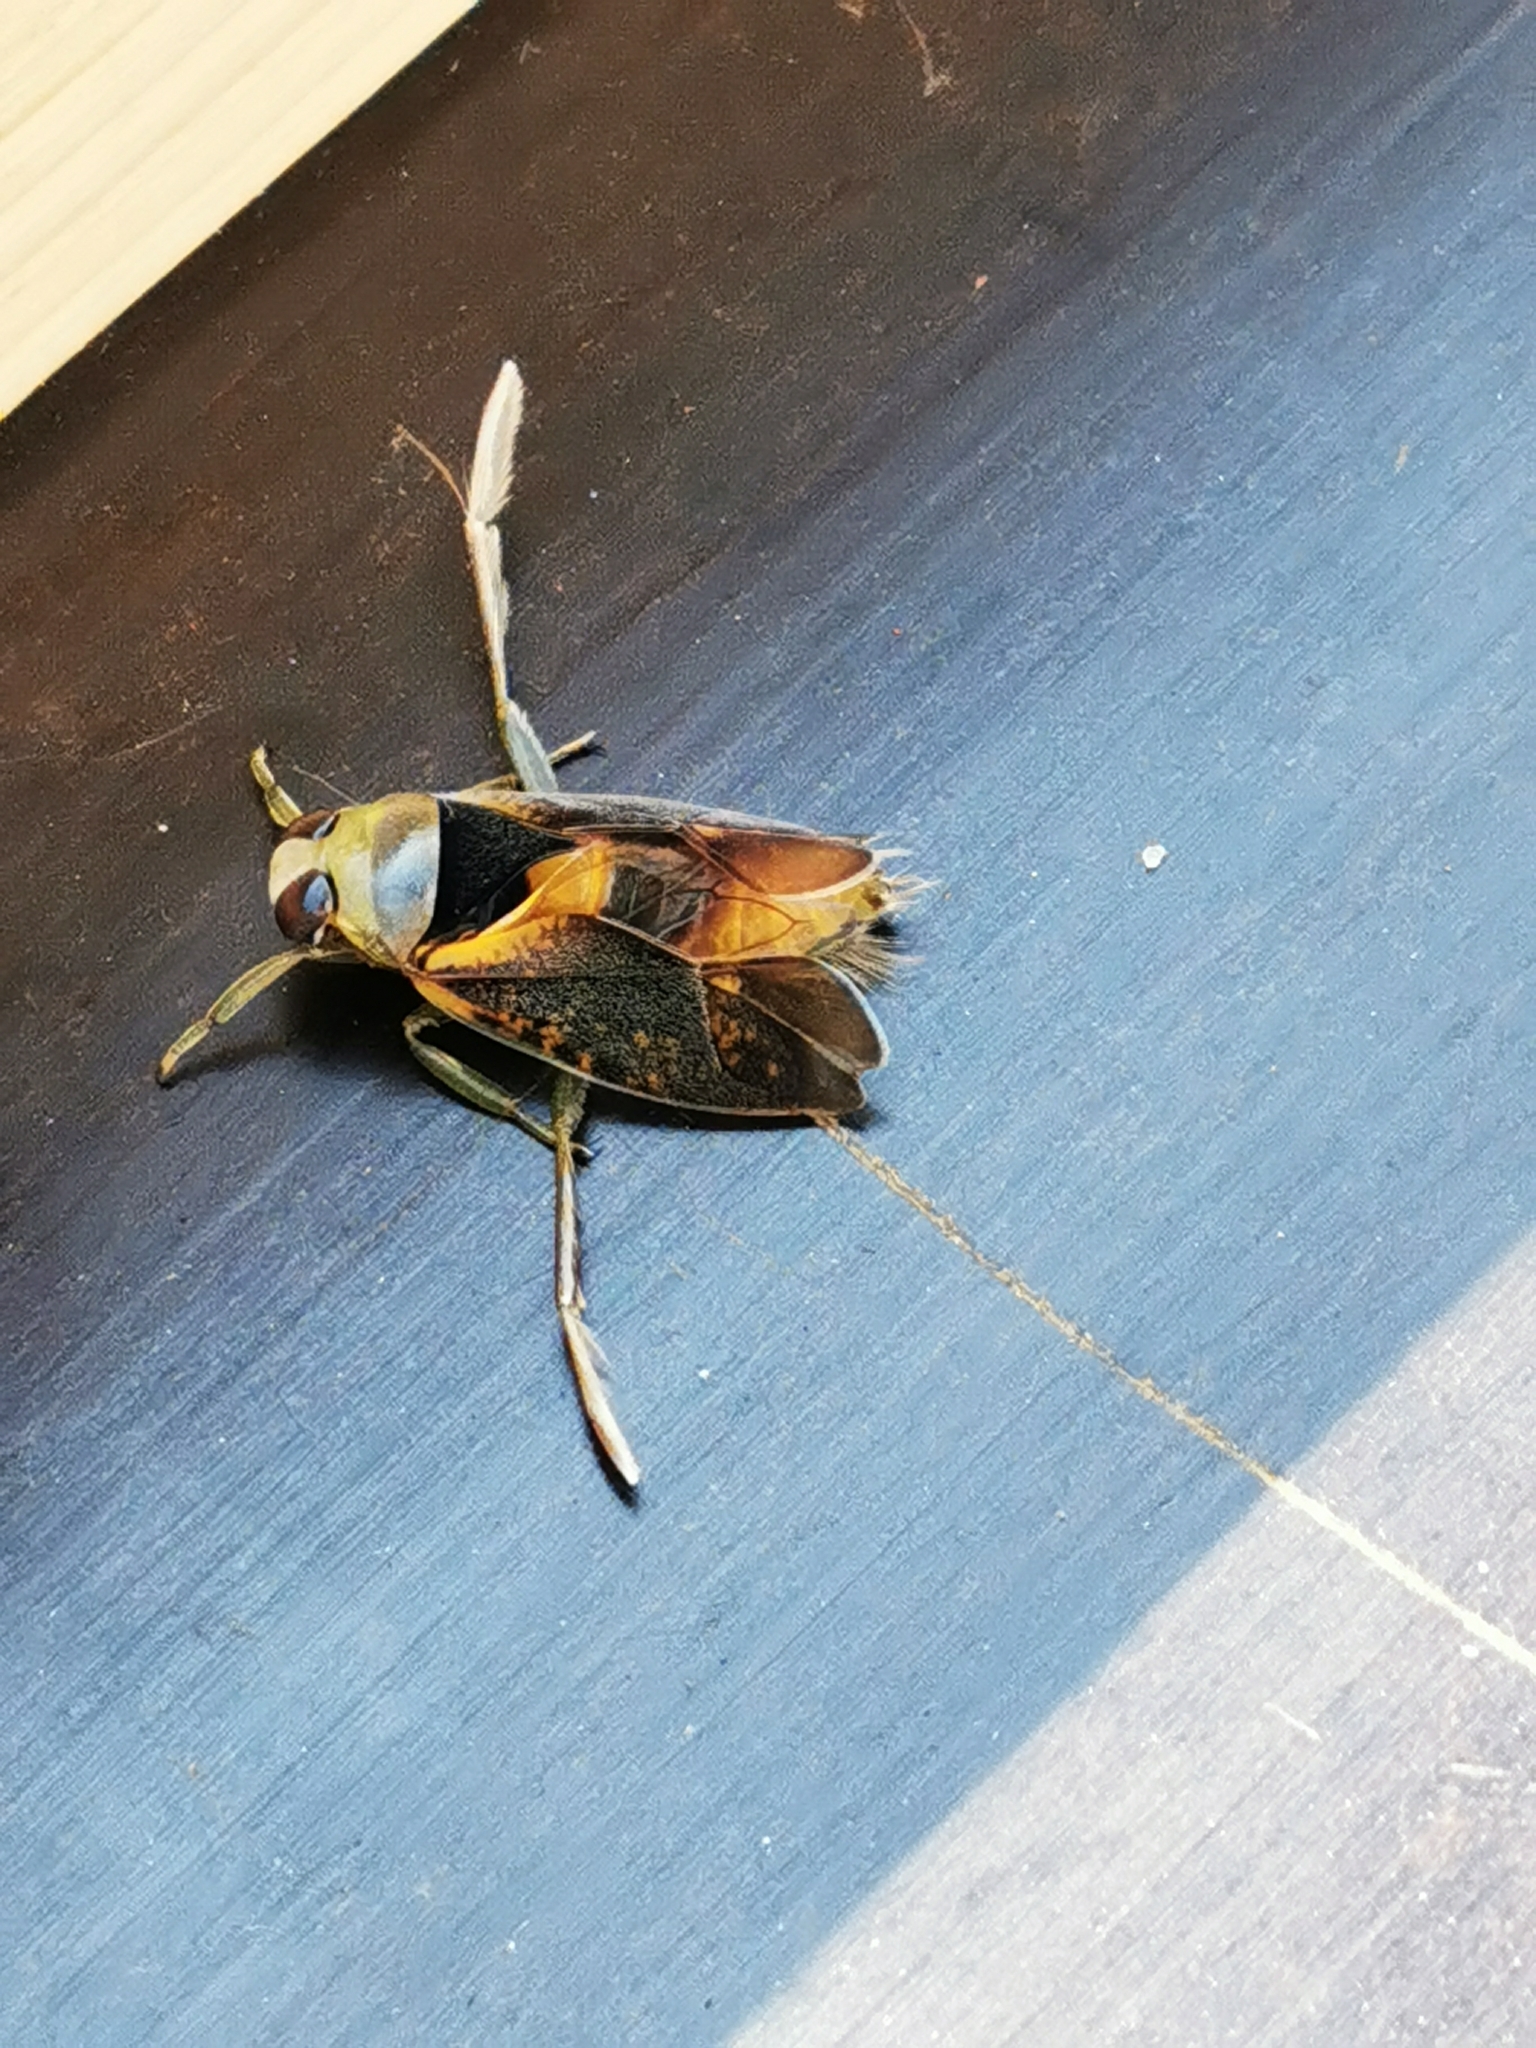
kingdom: Animalia
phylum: Arthropoda
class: Insecta
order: Hemiptera
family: Notonectidae
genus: Notonecta
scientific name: Notonecta maculata
